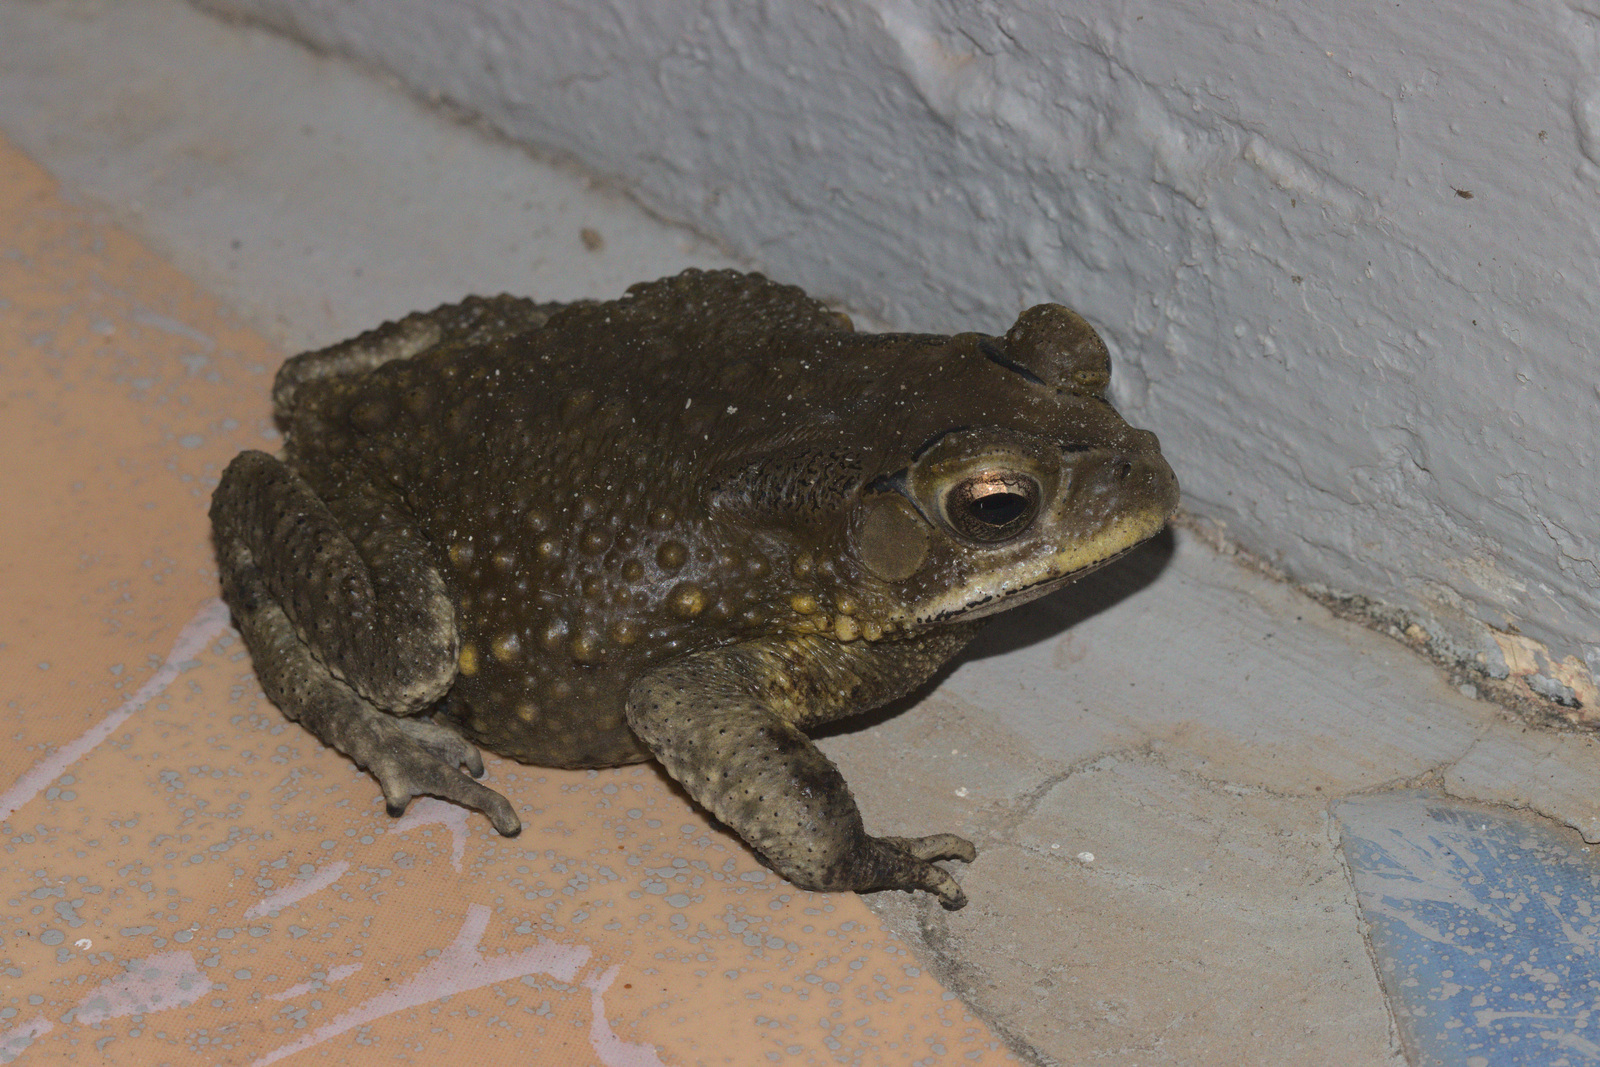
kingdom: Animalia
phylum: Chordata
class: Amphibia
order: Anura
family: Bufonidae
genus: Duttaphrynus
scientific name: Duttaphrynus melanostictus
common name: Common sunda toad
